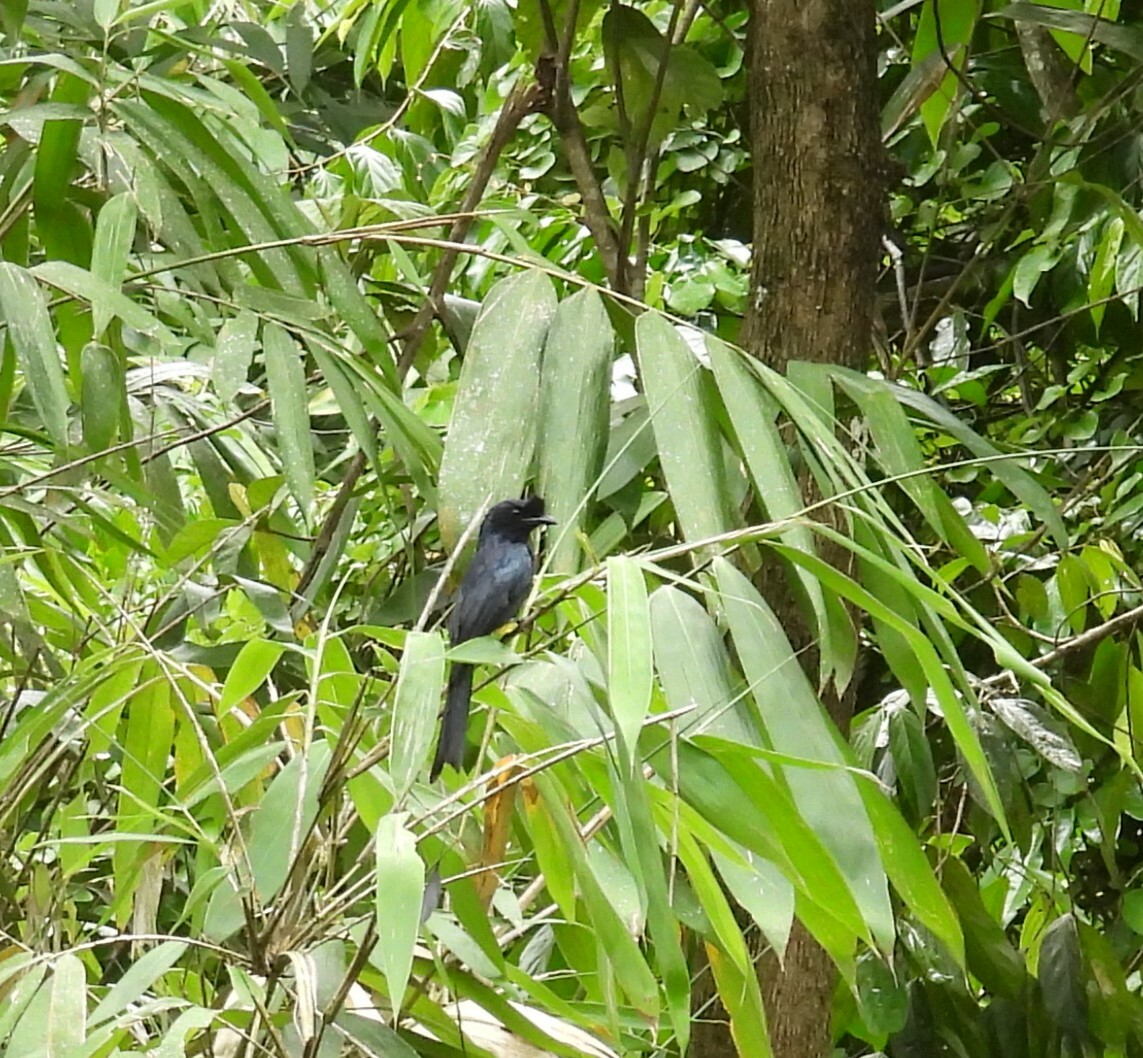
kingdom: Animalia
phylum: Chordata
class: Aves
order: Passeriformes
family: Dicruridae
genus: Dicrurus
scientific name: Dicrurus paradiseus
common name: Greater racket-tailed drongo
